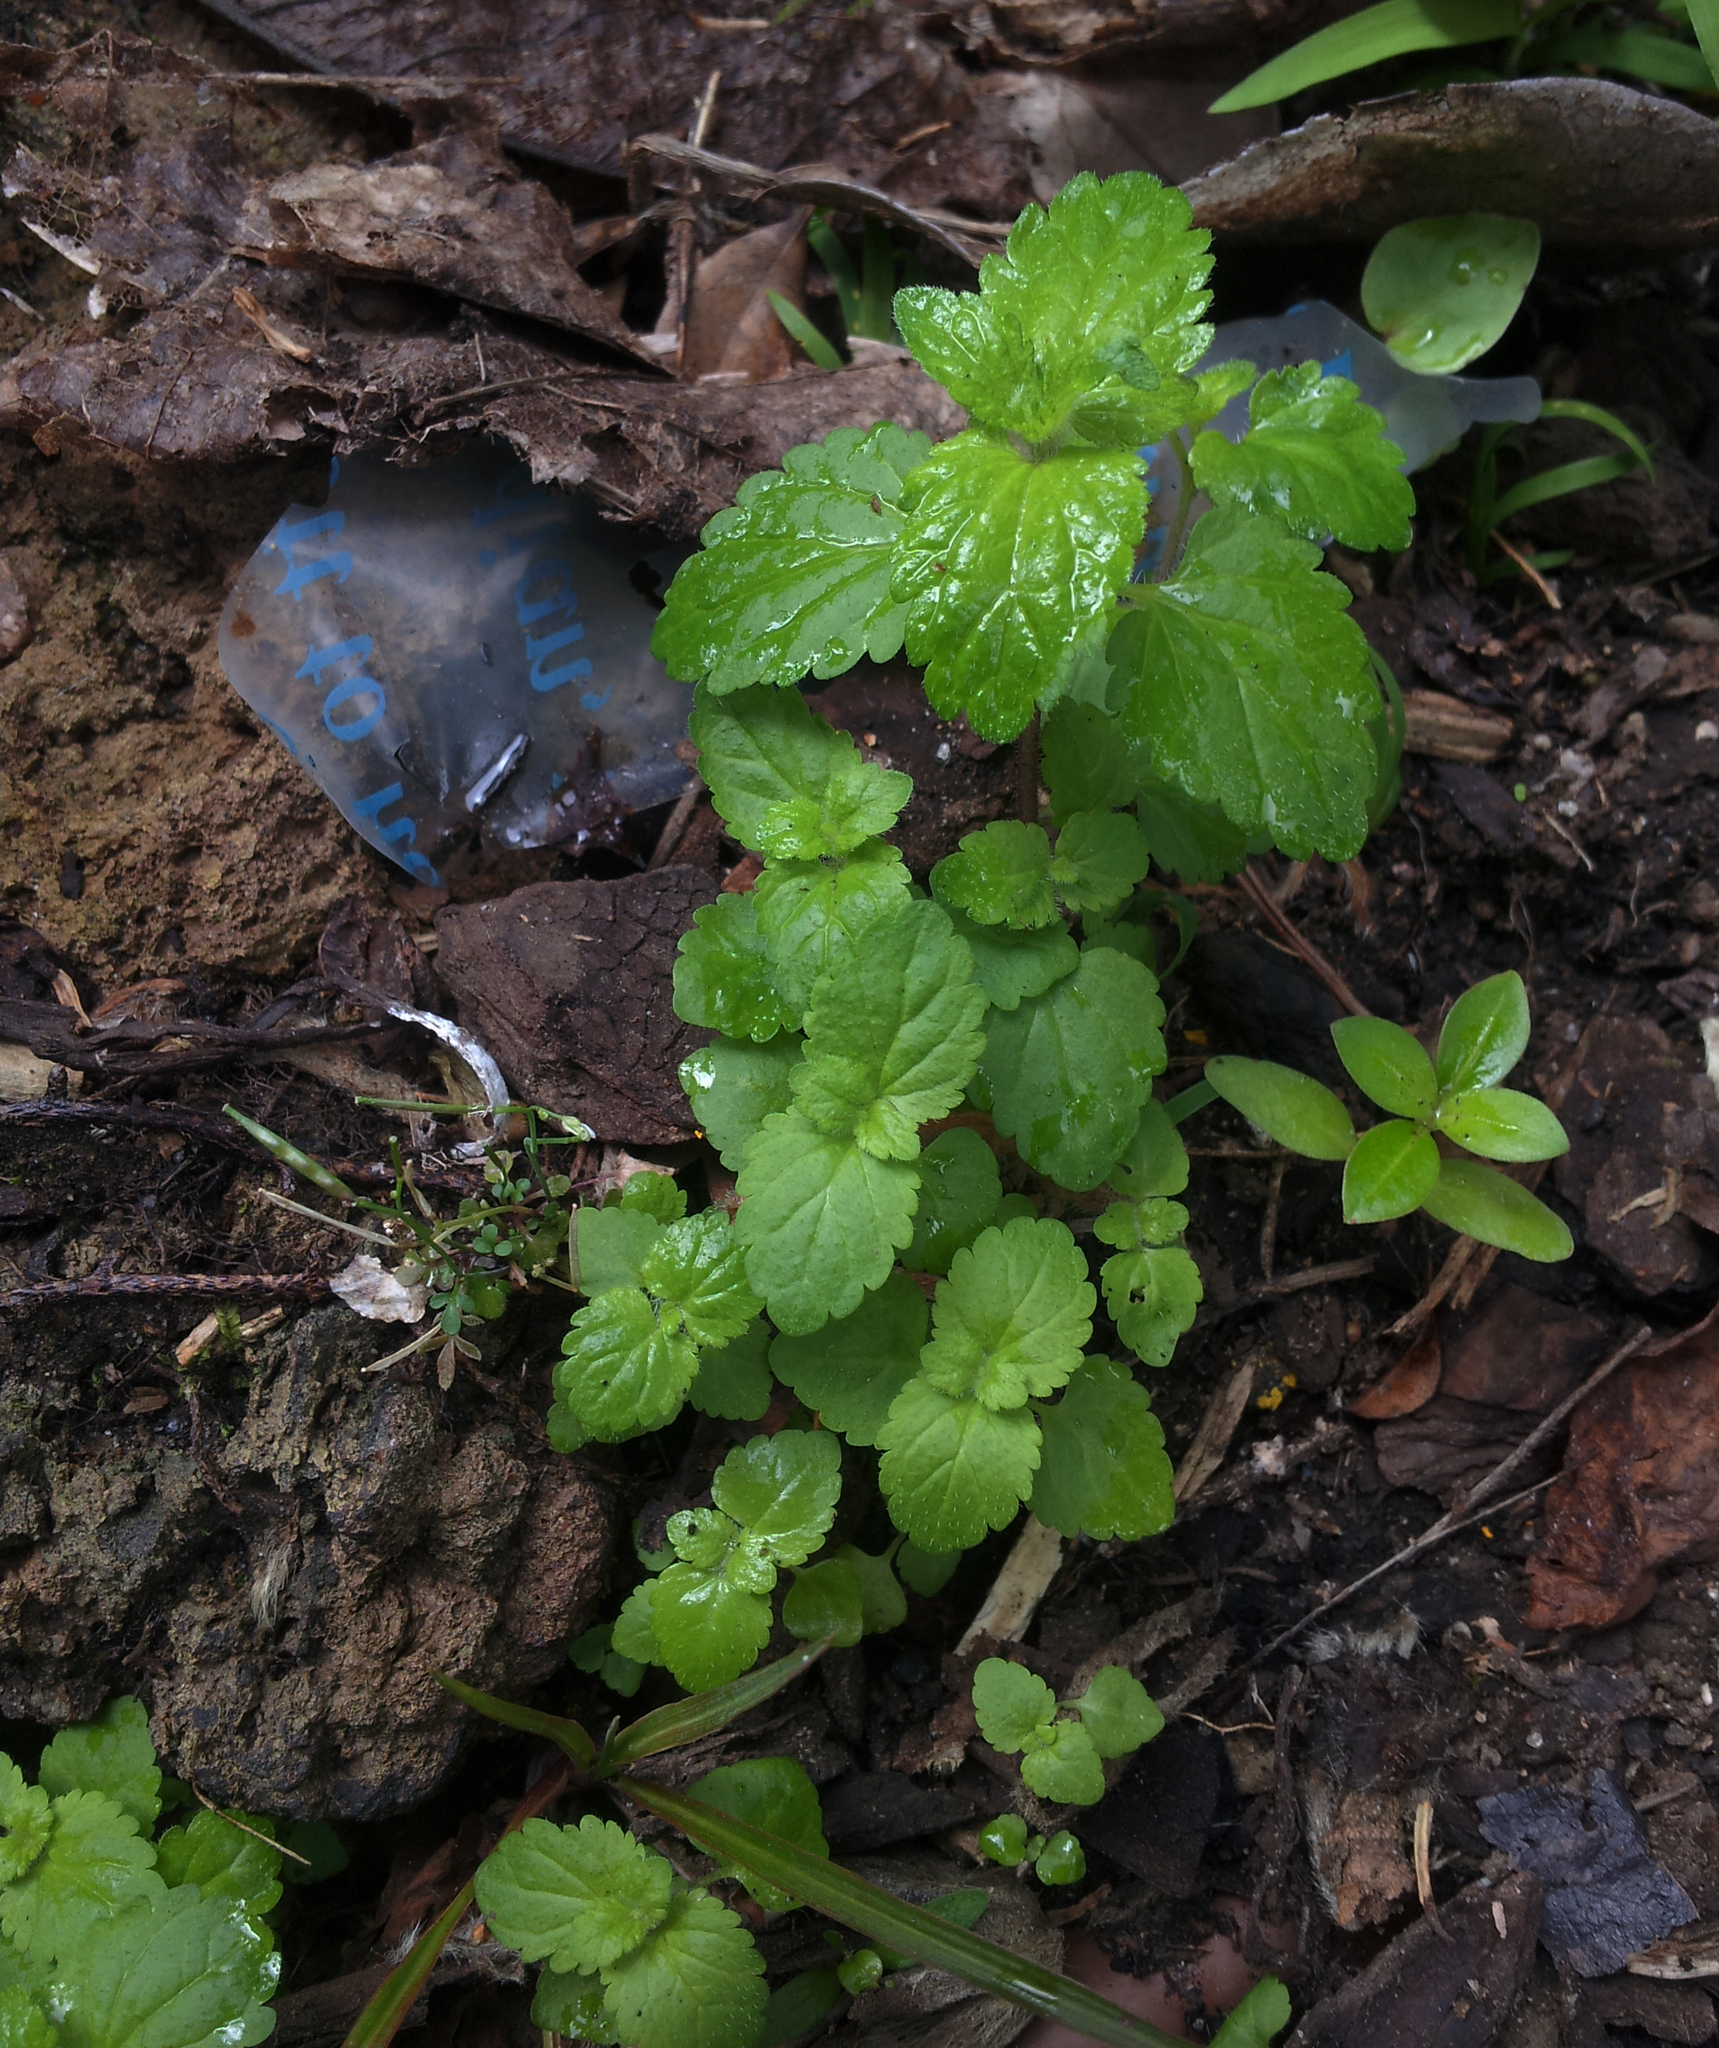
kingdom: Plantae
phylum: Tracheophyta
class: Magnoliopsida
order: Lamiales
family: Plantaginaceae
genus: Veronica
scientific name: Veronica javanica
